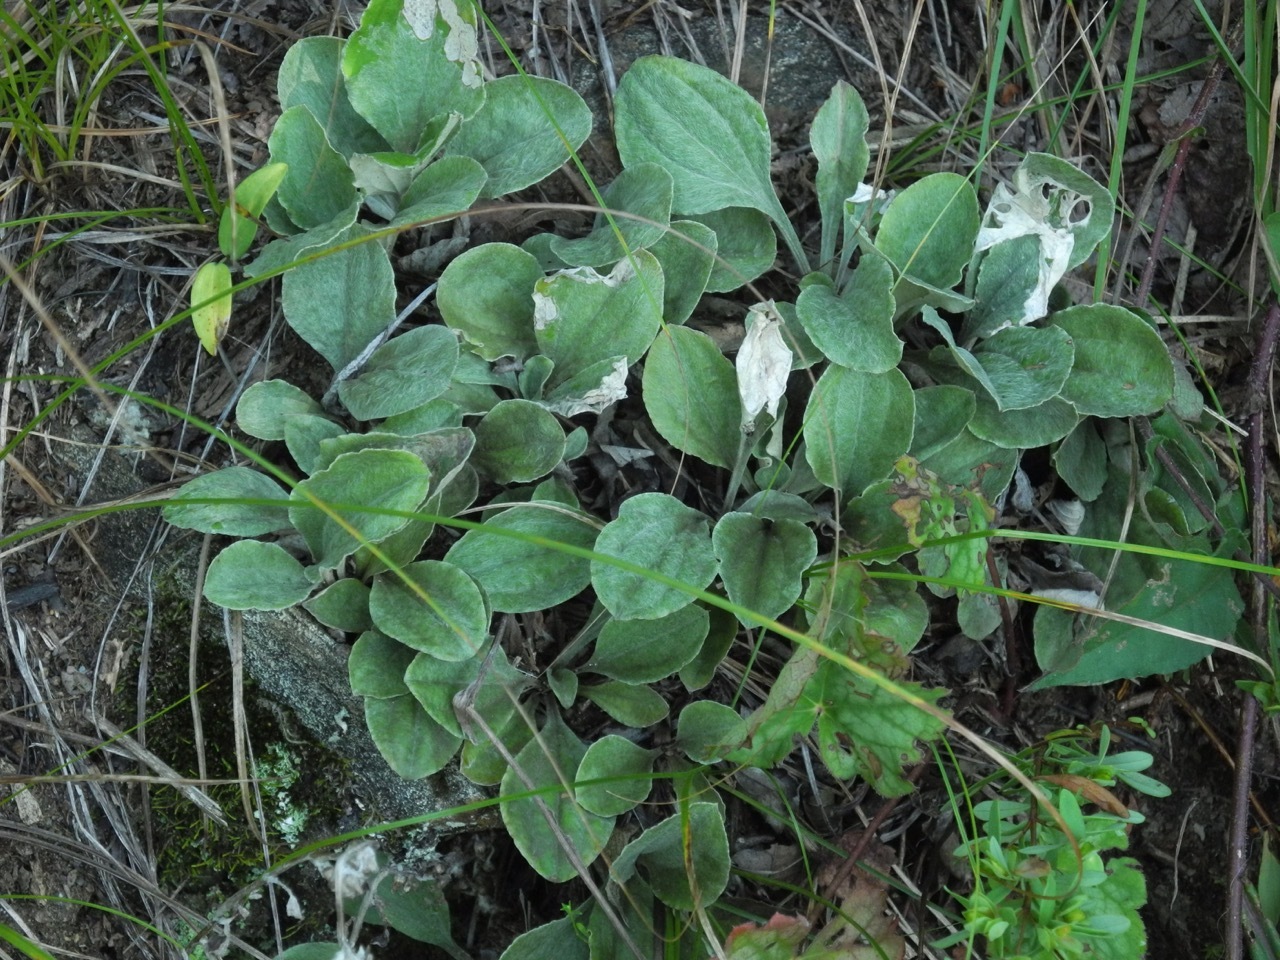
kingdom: Plantae
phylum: Tracheophyta
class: Magnoliopsida
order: Asterales
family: Asteraceae
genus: Antennaria
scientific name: Antennaria plantaginifolia
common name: Plantain-leaved pussytoes
